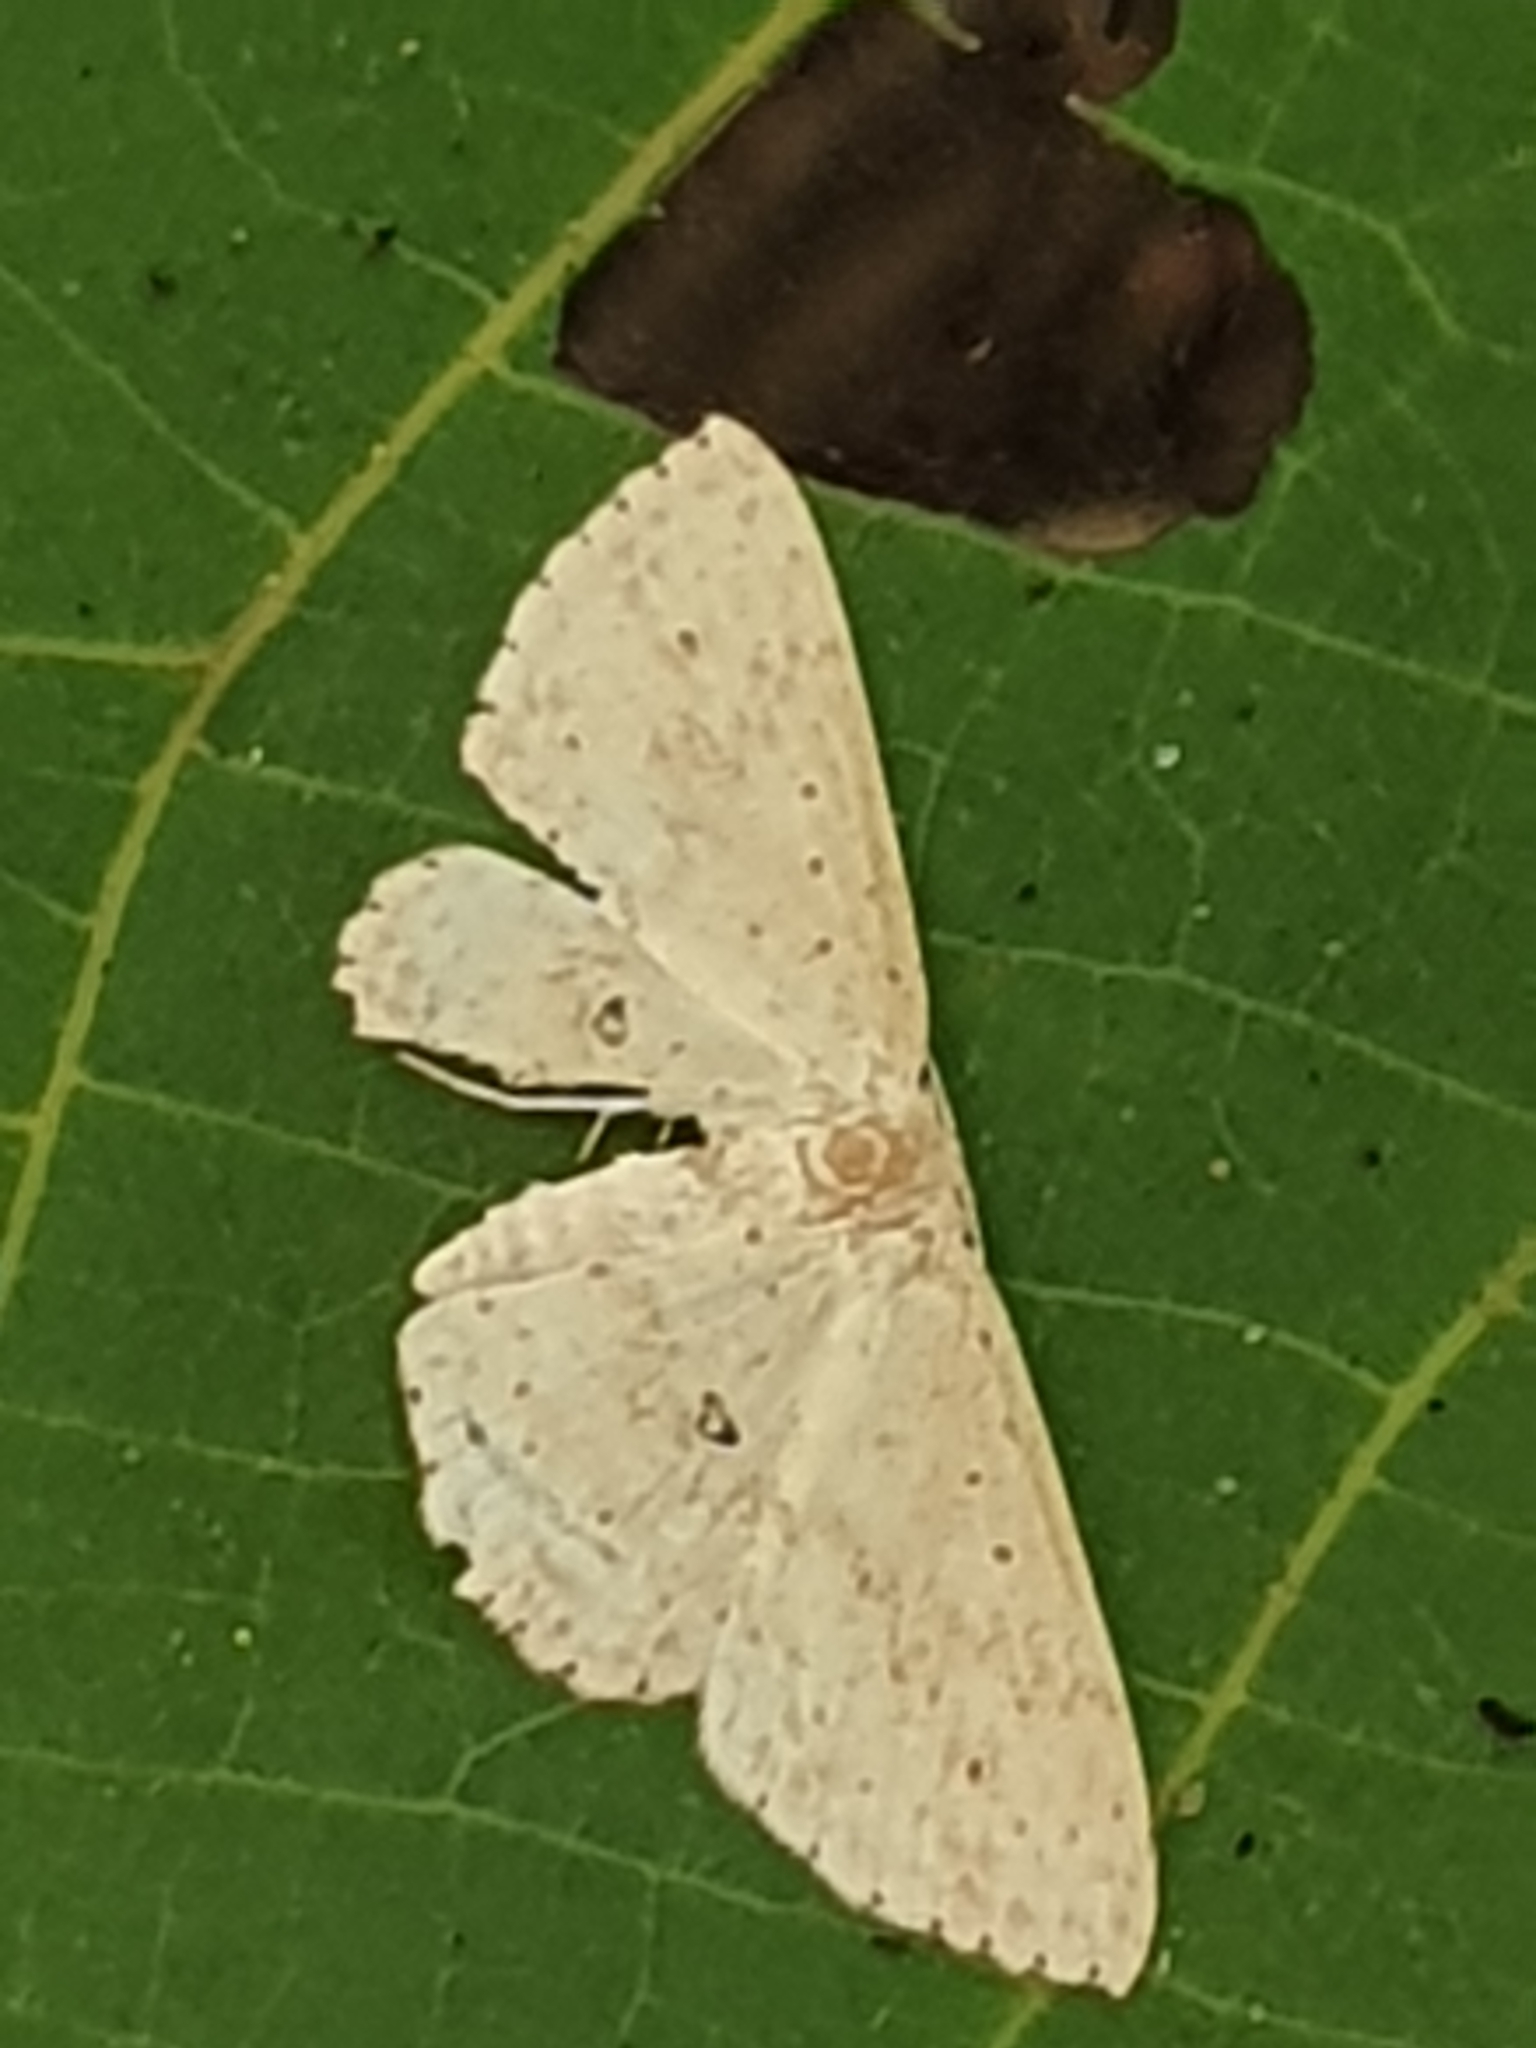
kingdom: Animalia
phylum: Arthropoda
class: Insecta
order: Lepidoptera
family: Geometridae
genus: Cyclophora
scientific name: Cyclophora turneri
